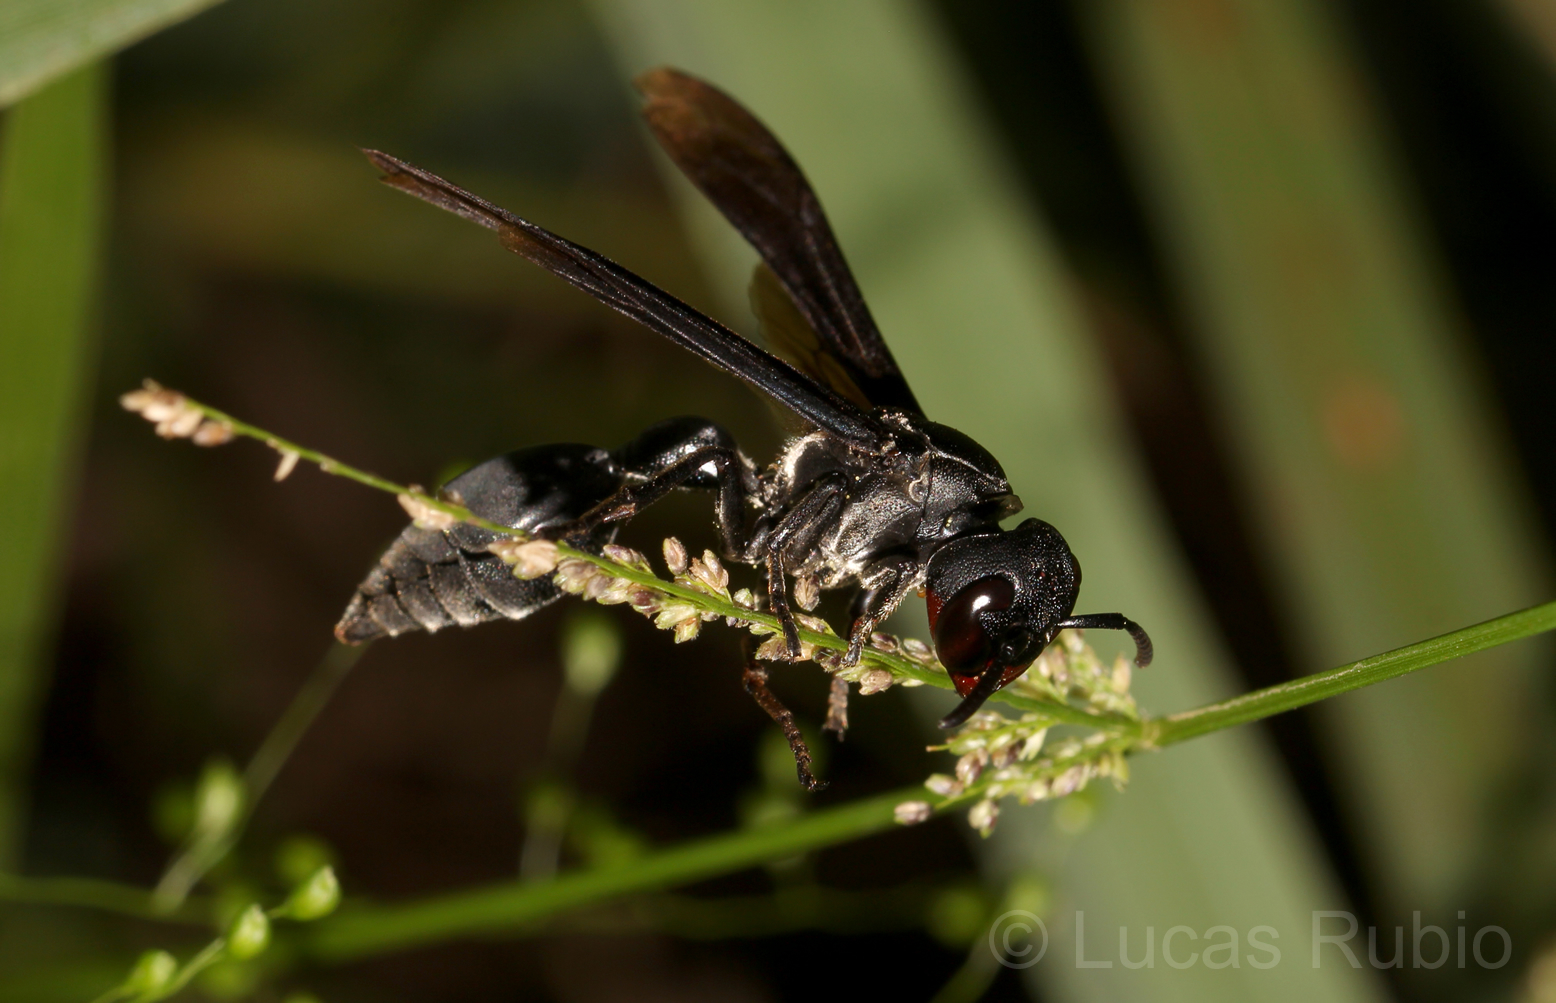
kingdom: Animalia
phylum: Arthropoda
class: Insecta
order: Hymenoptera
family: Eumenidae
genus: Zethus
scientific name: Zethus brasiliensis
